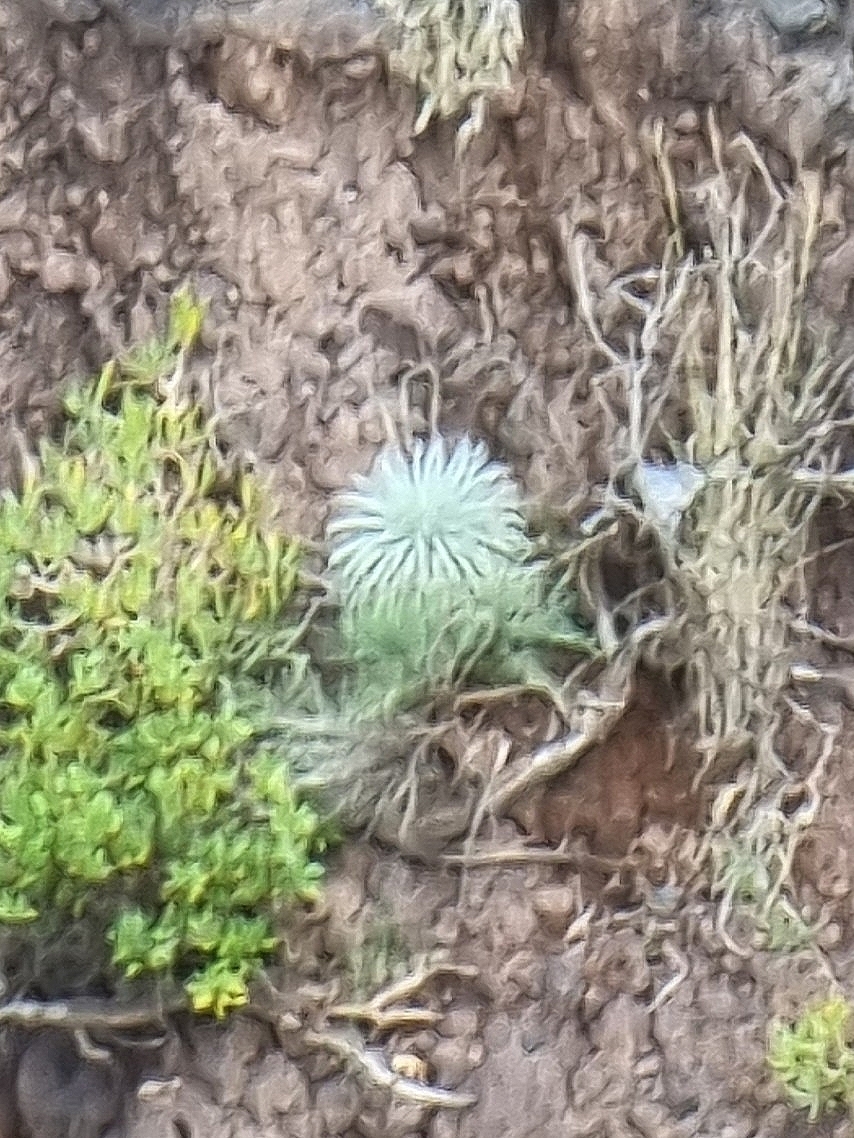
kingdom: Plantae
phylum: Tracheophyta
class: Magnoliopsida
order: Brassicales
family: Brassicaceae
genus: Matthiola
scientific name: Matthiola maderensis
